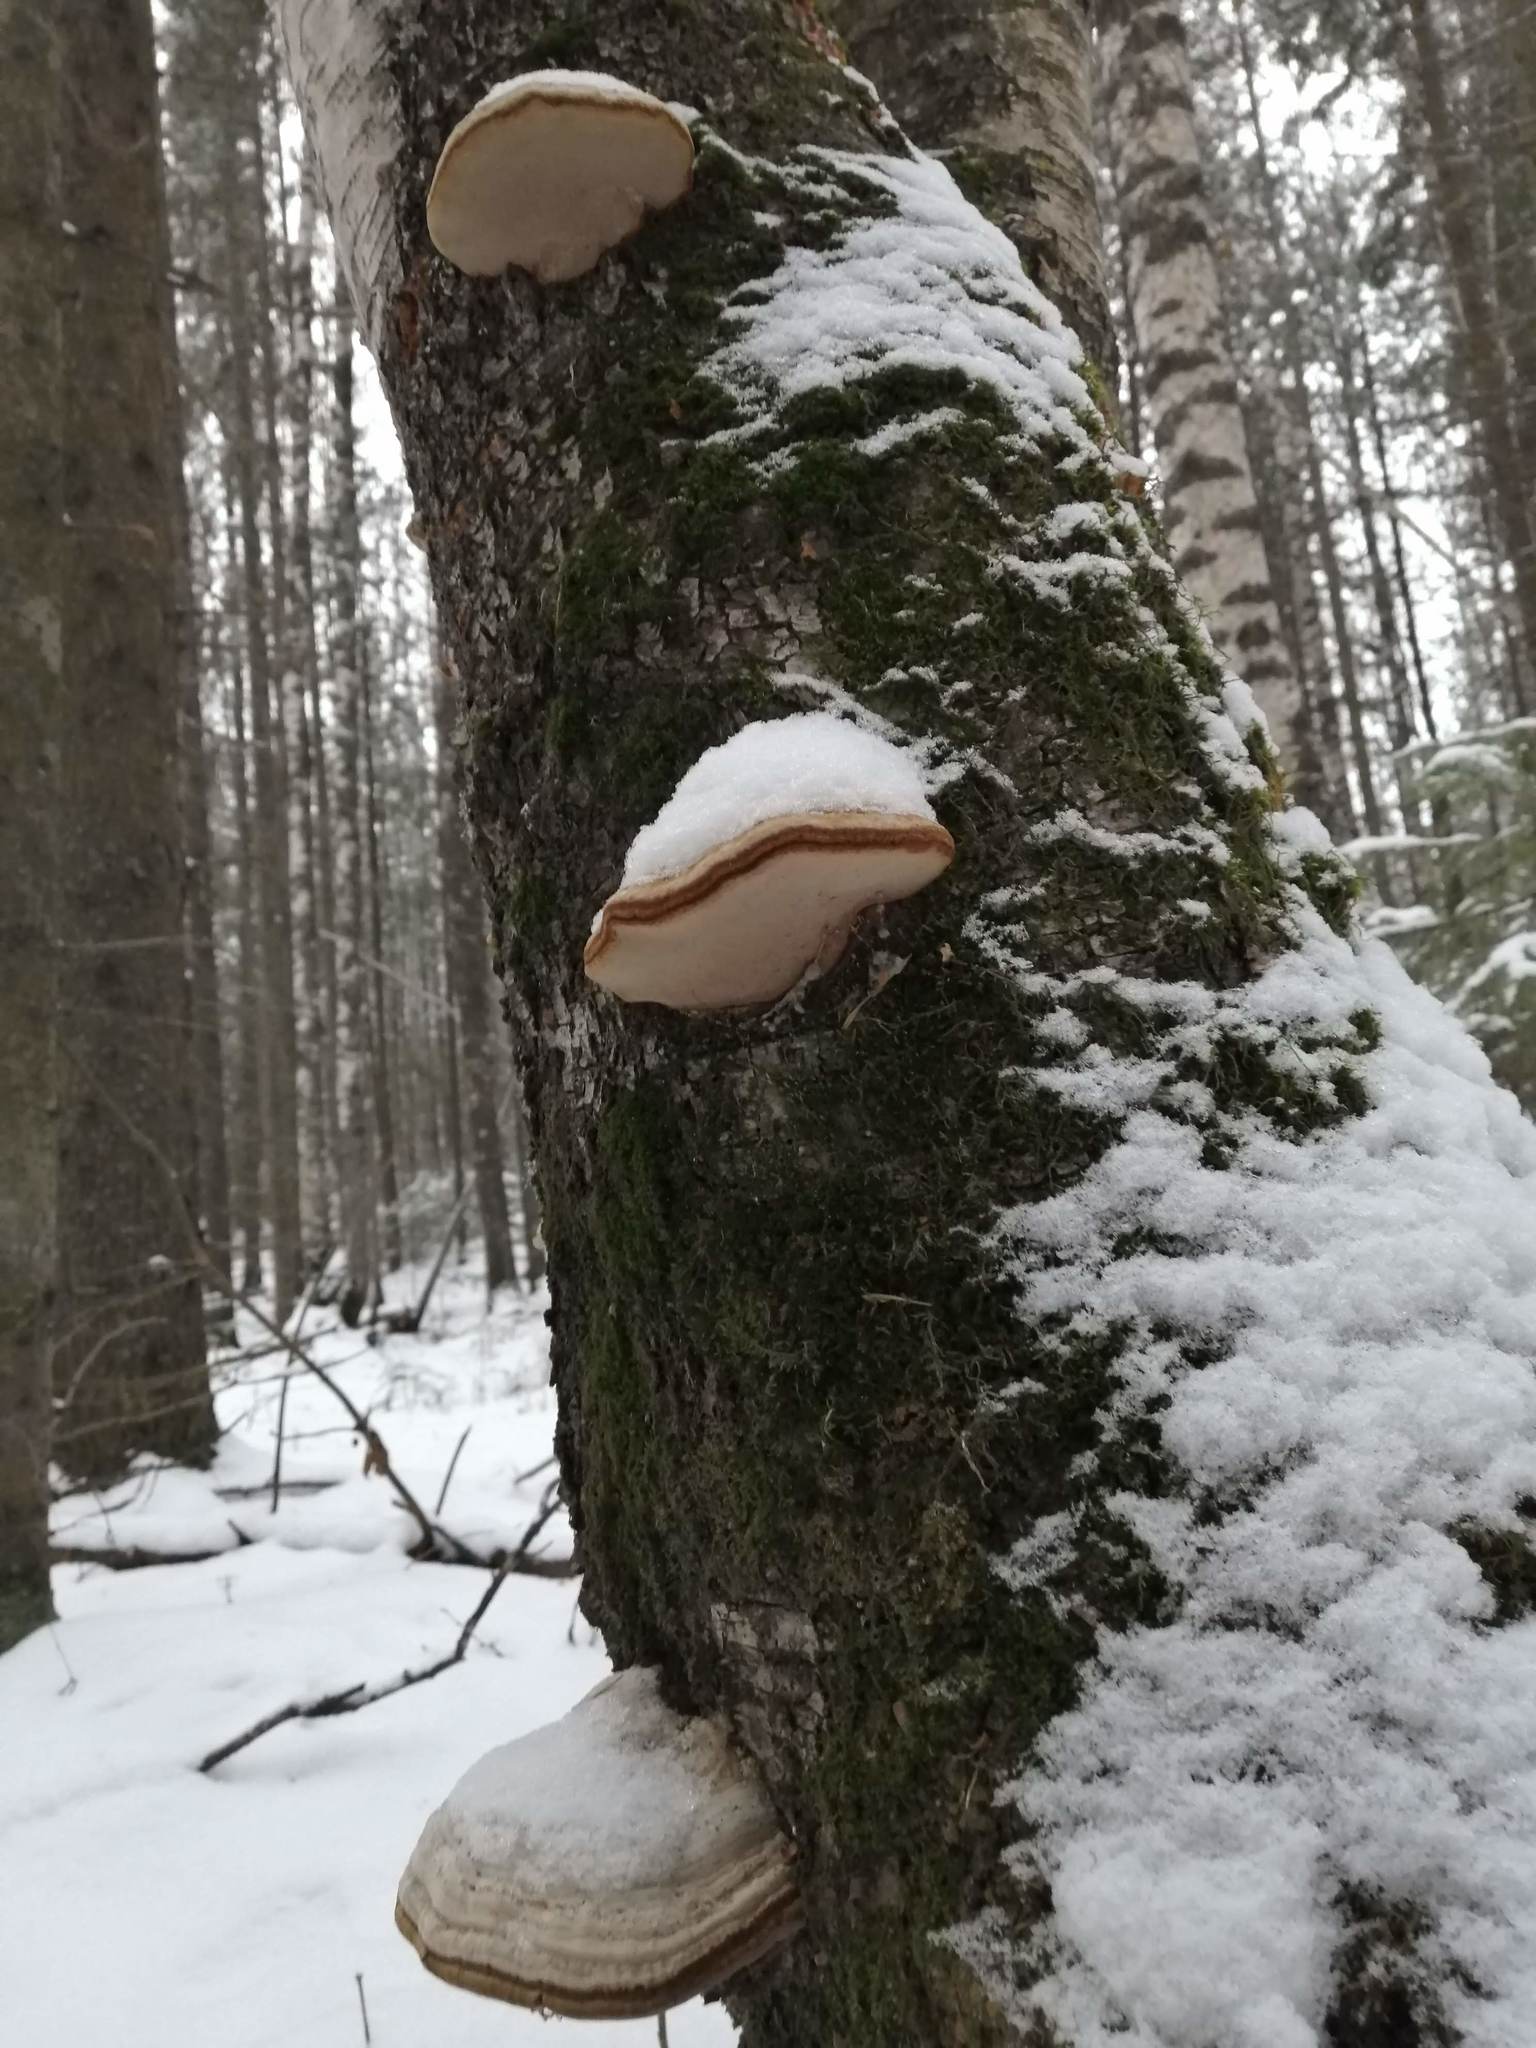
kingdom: Fungi
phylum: Basidiomycota
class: Agaricomycetes
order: Polyporales
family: Polyporaceae
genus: Fomes
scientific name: Fomes fomentarius
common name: Hoof fungus
